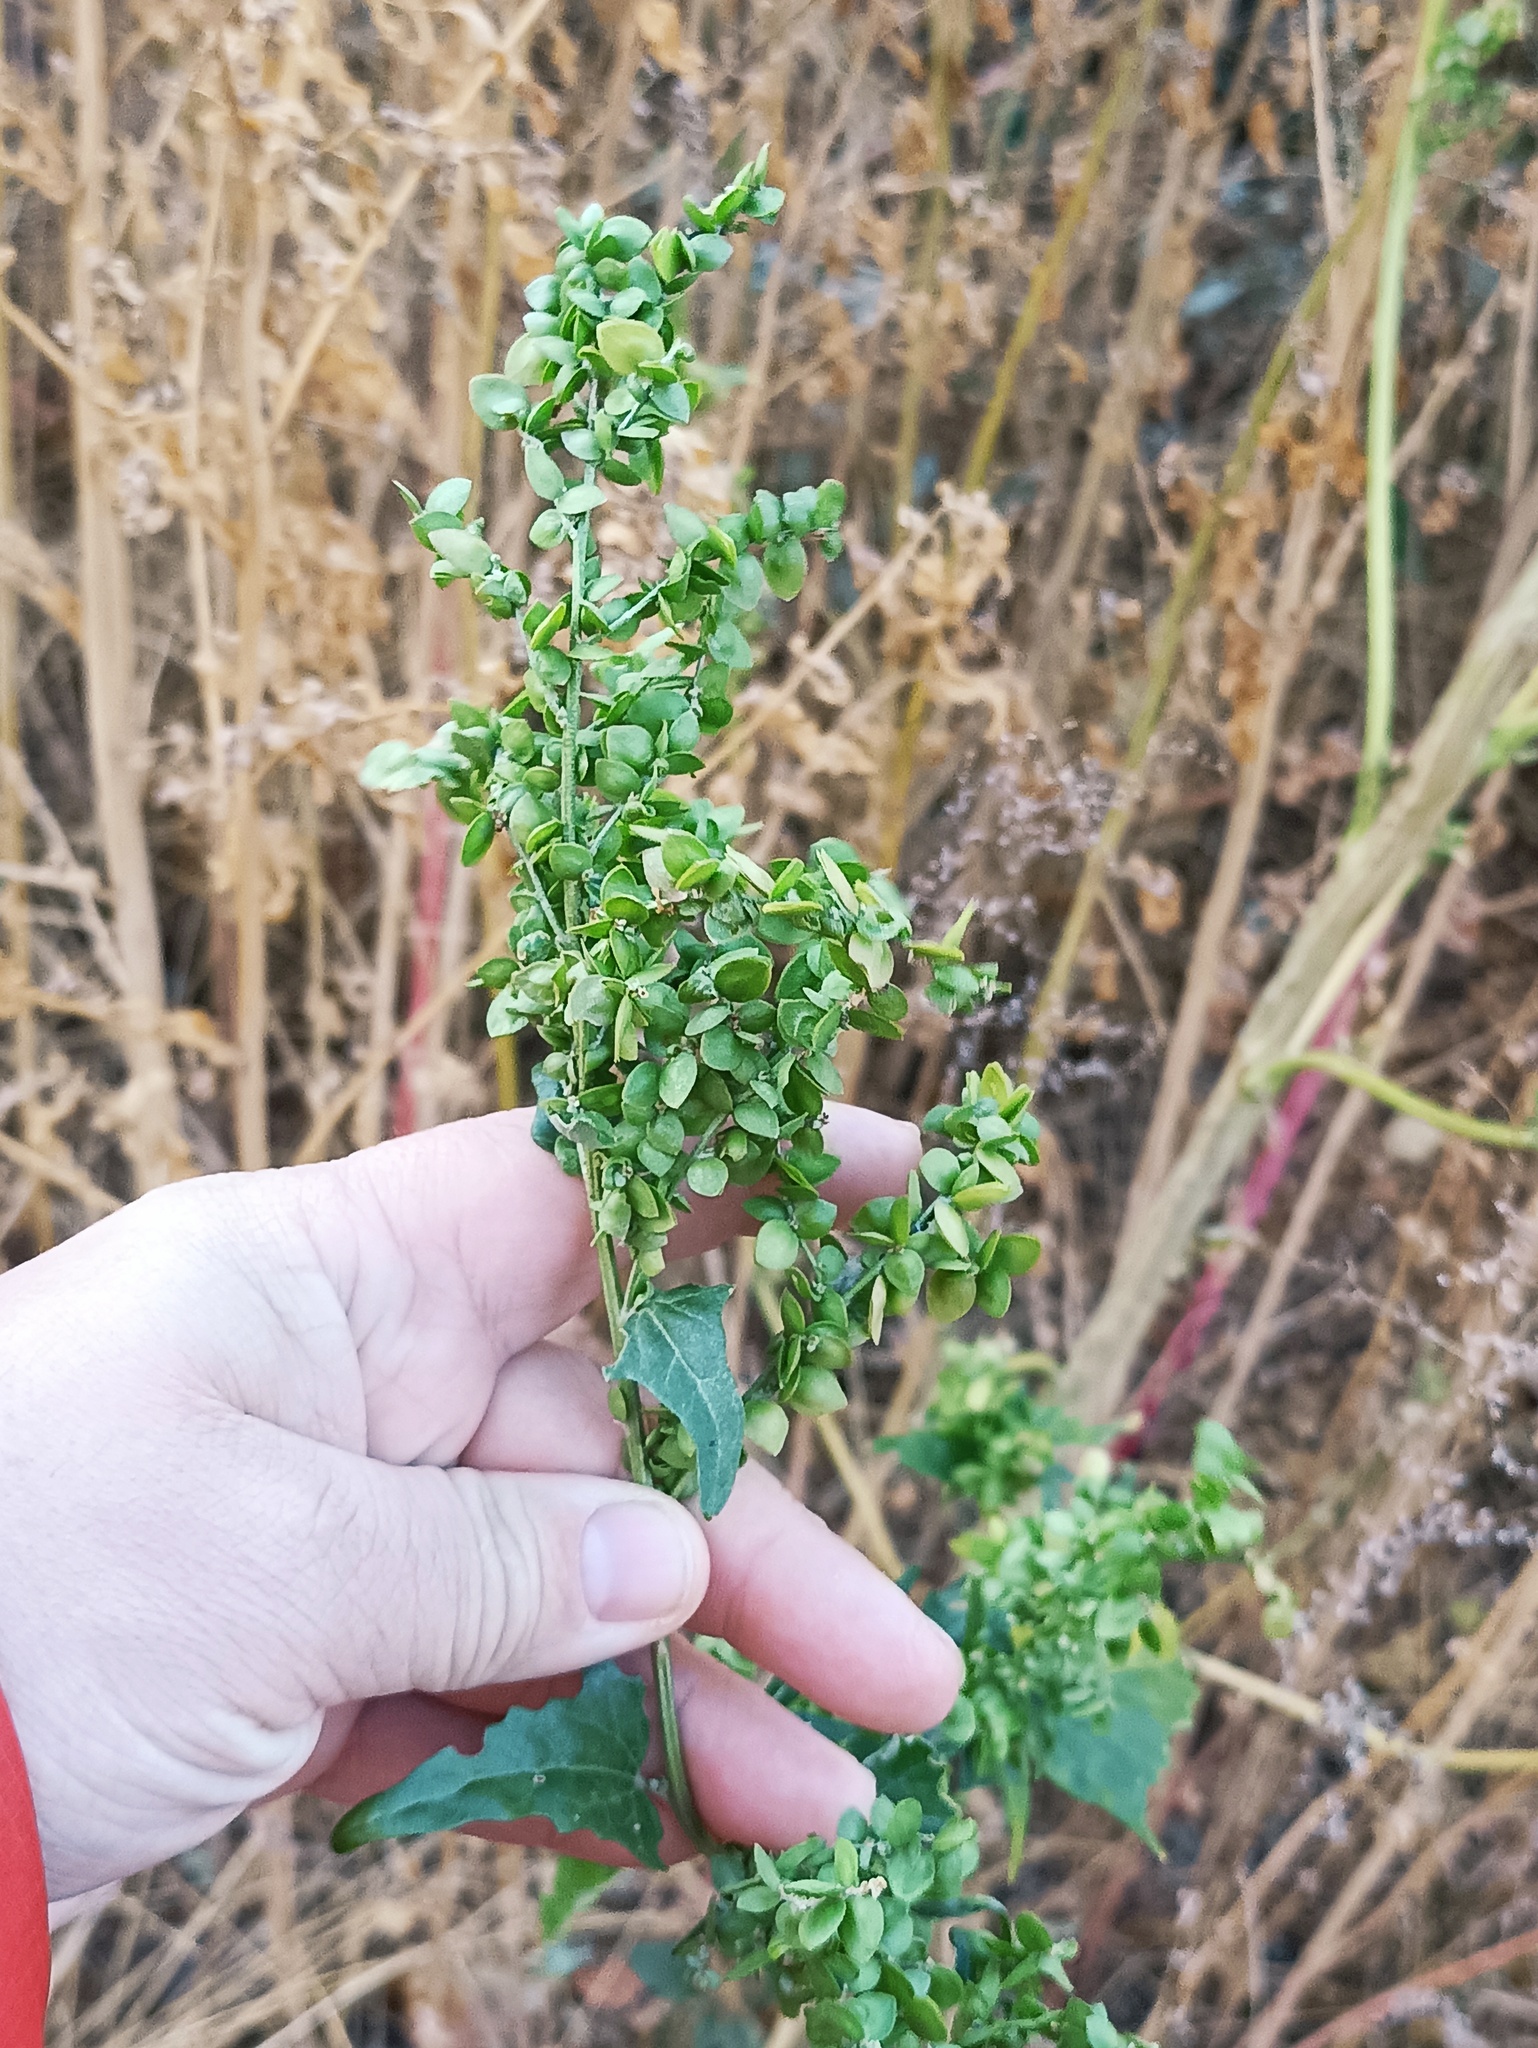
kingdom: Plantae
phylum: Tracheophyta
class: Magnoliopsida
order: Caryophyllales
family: Amaranthaceae
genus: Atriplex
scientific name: Atriplex sagittata
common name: Purple orache
